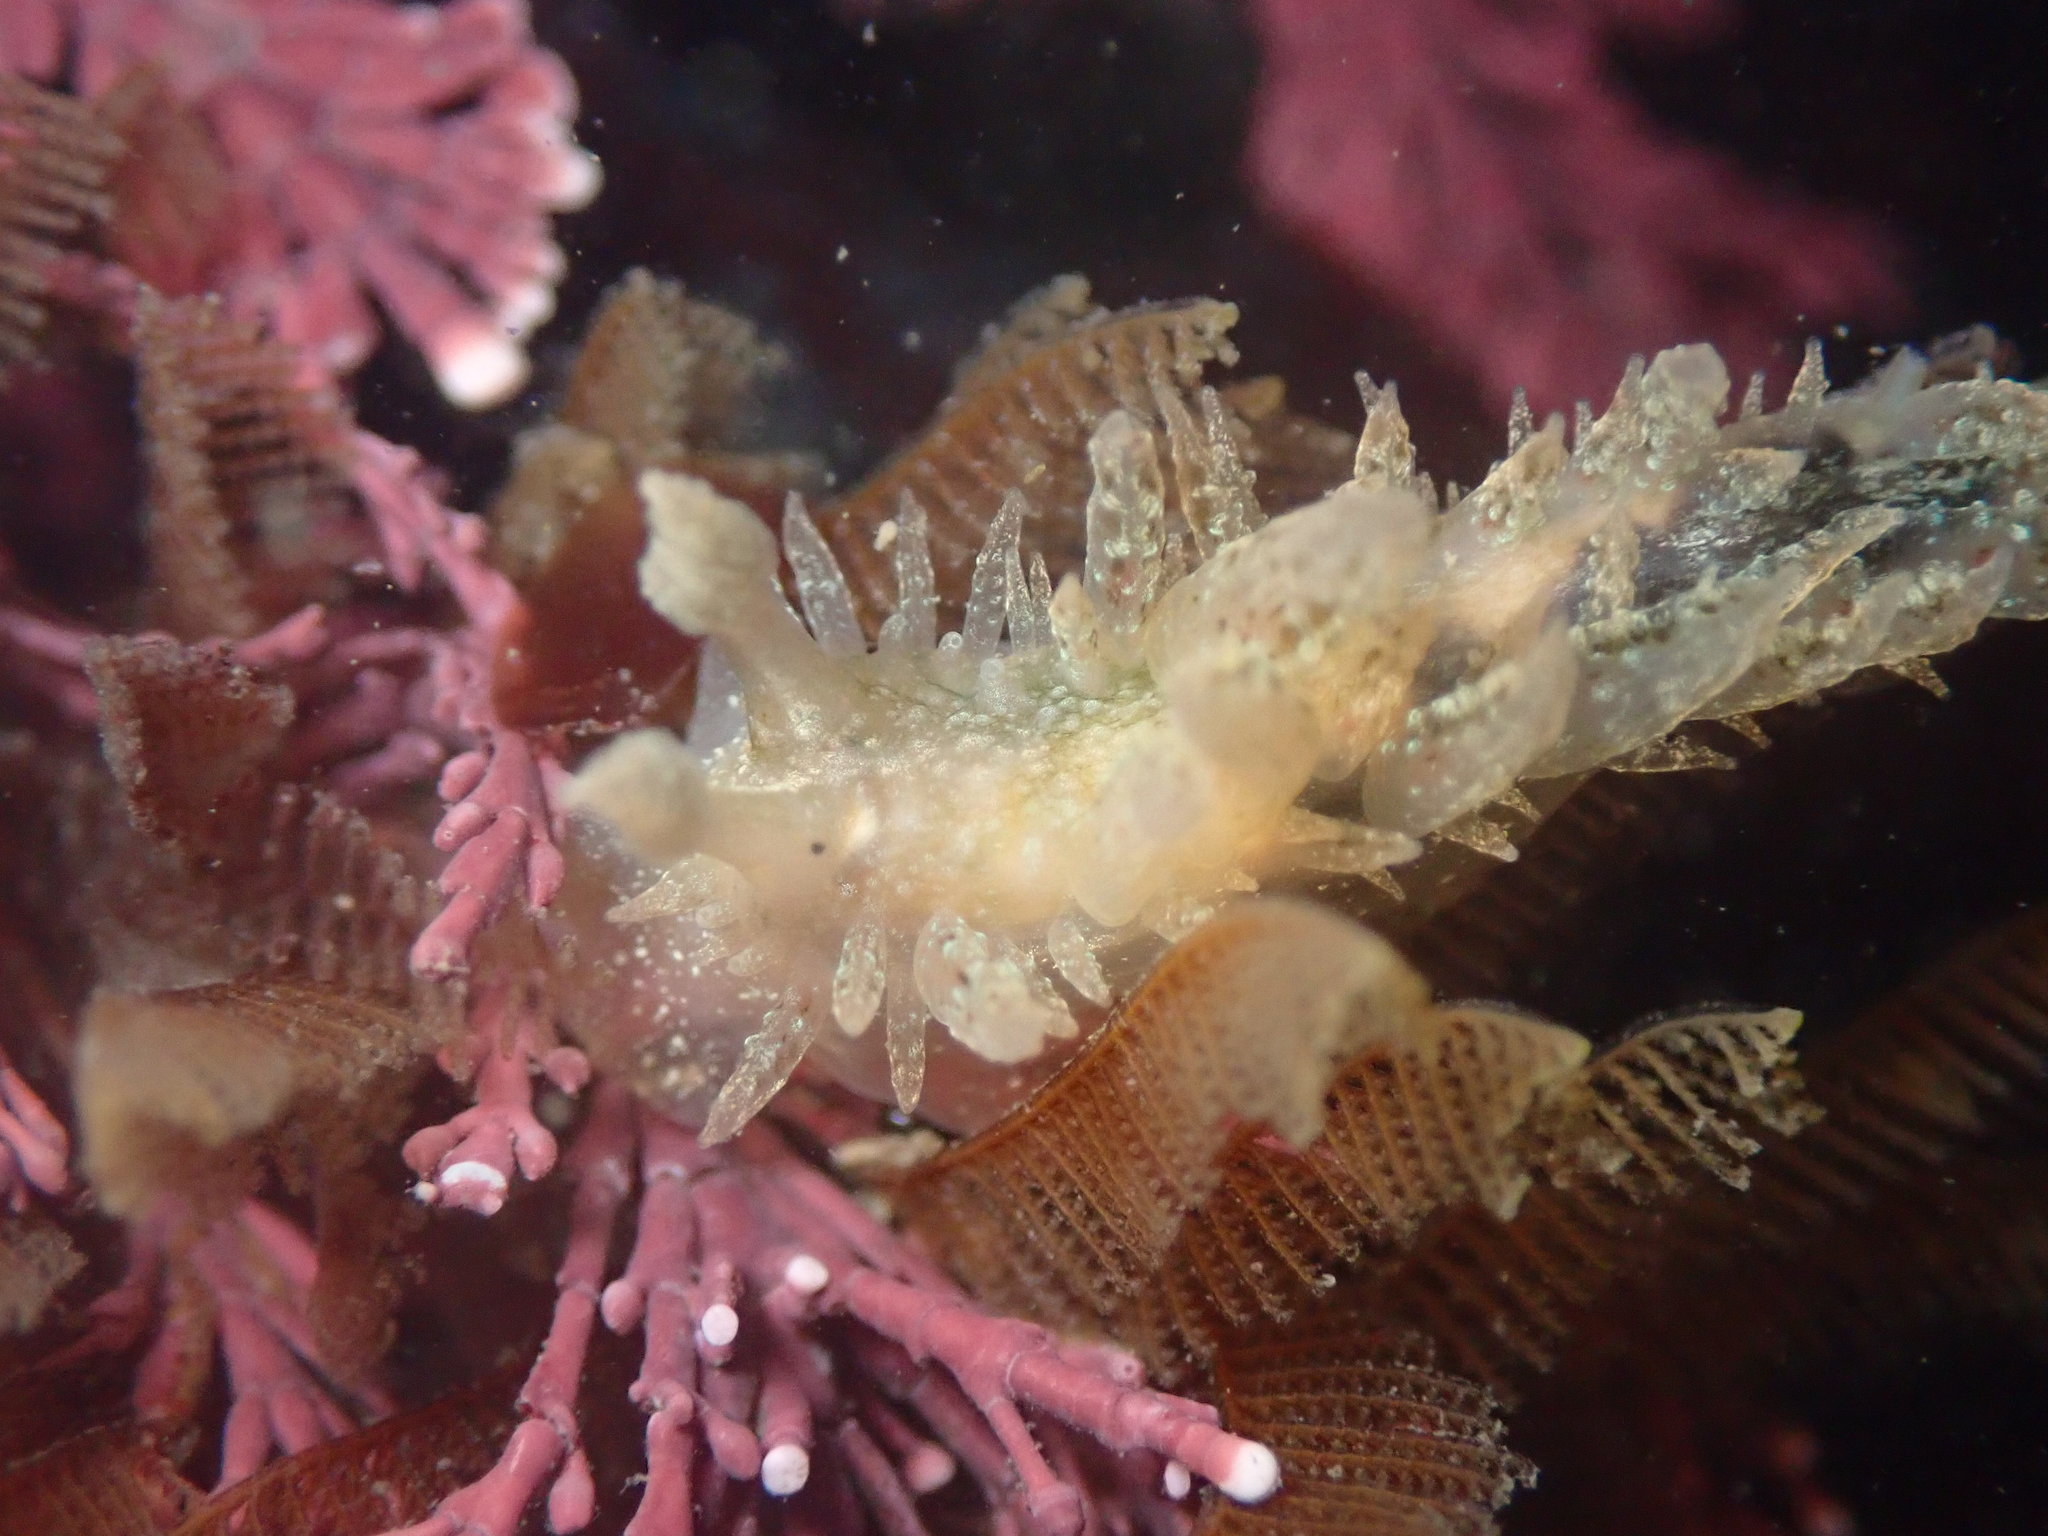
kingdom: Animalia
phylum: Mollusca
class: Gastropoda
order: Nudibranchia
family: Dironidae
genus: Dirona
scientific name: Dirona picta
